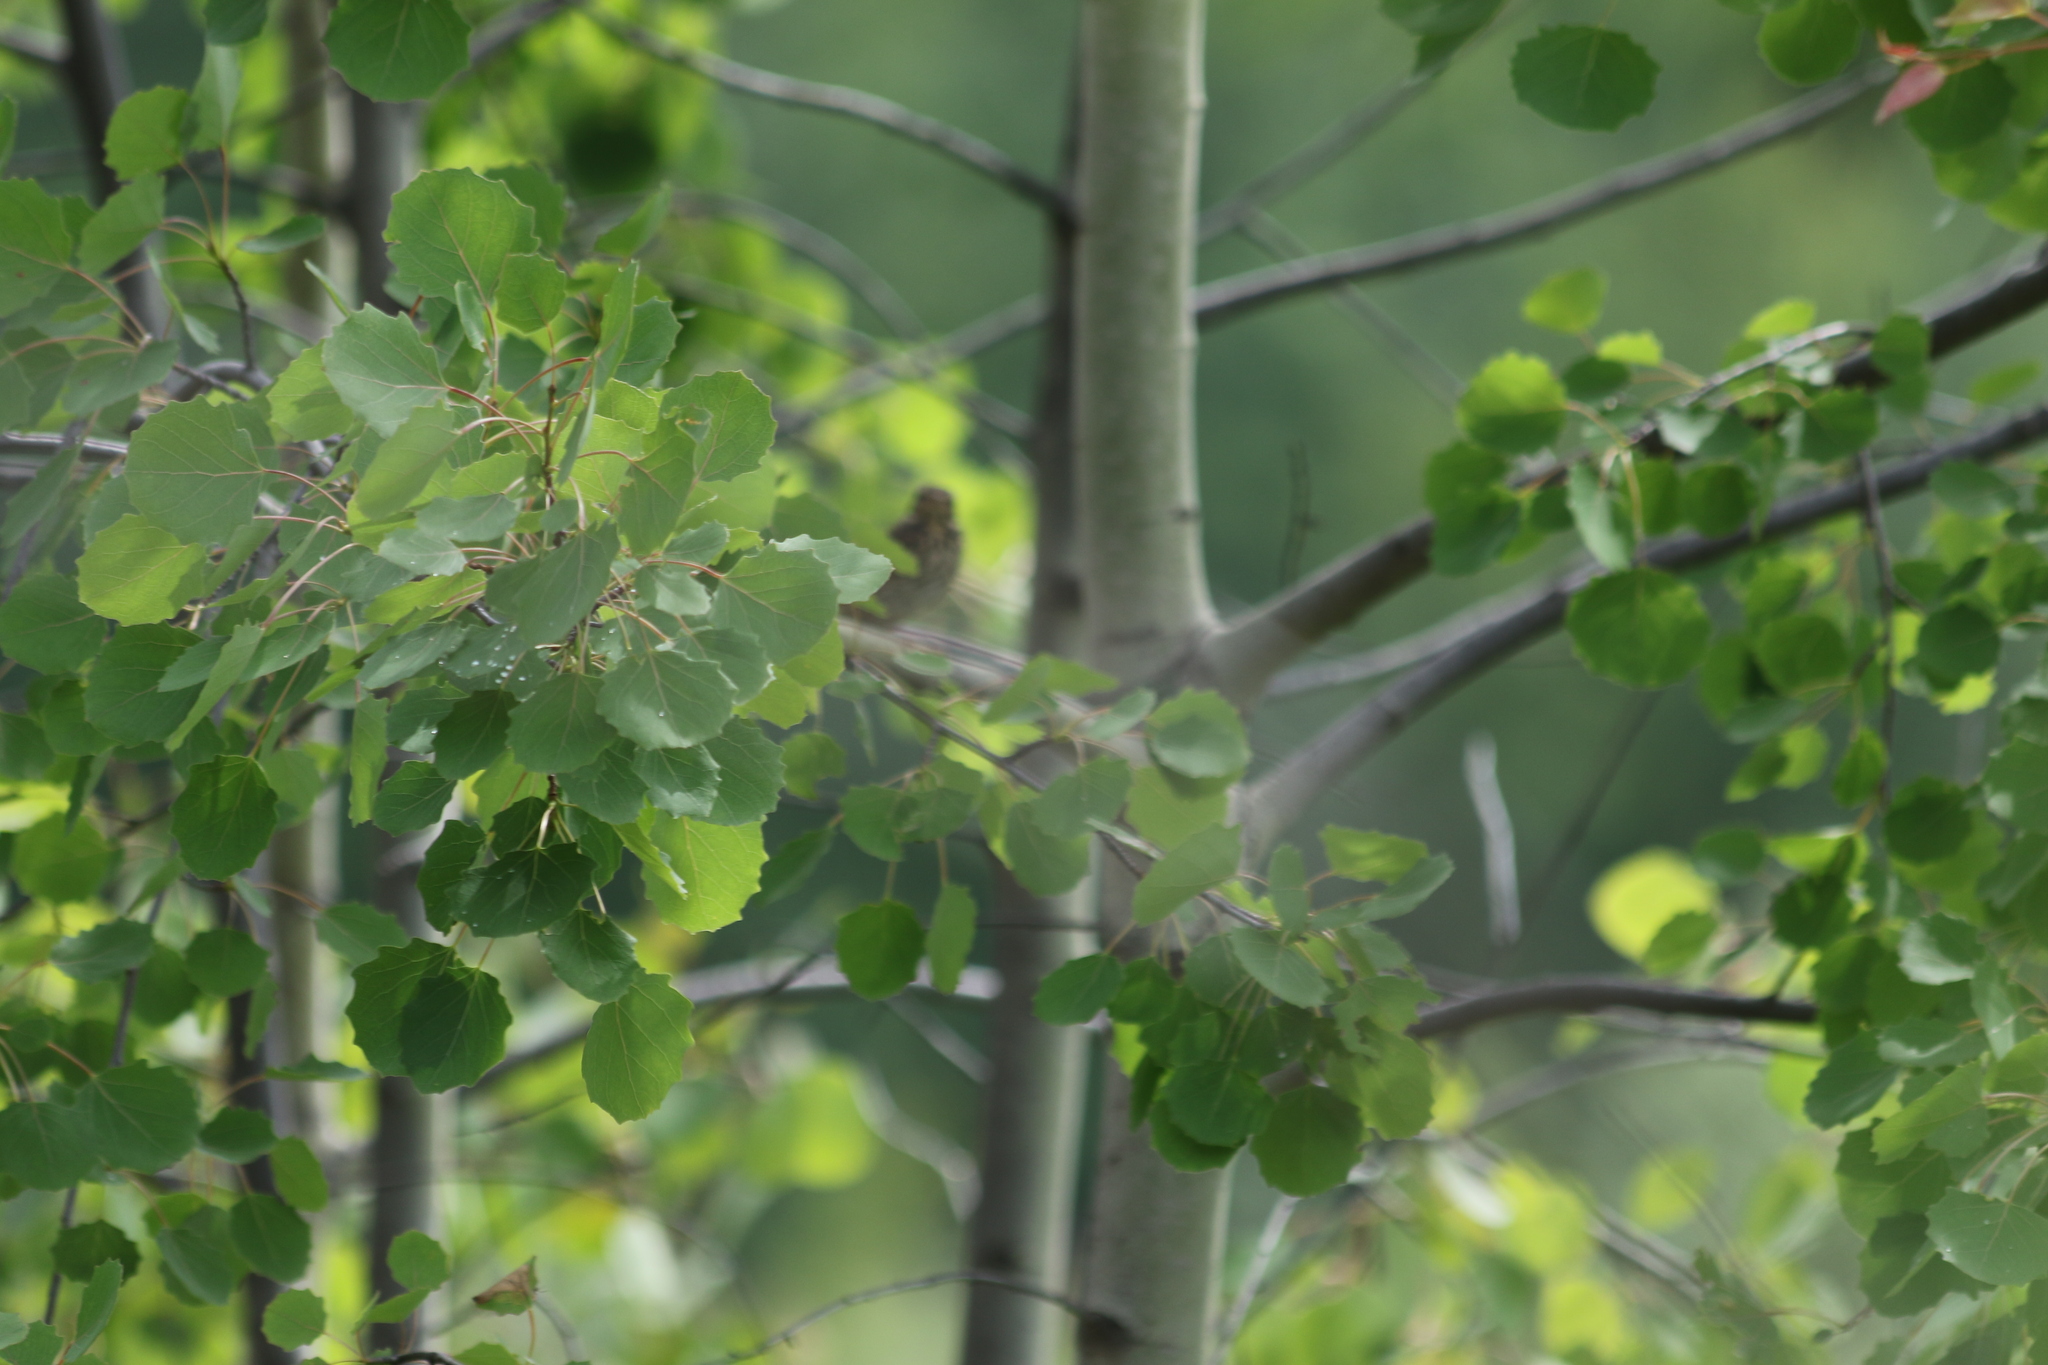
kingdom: Animalia
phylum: Chordata
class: Aves
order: Passeriformes
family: Motacillidae
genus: Anthus
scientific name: Anthus trivialis
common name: Tree pipit
